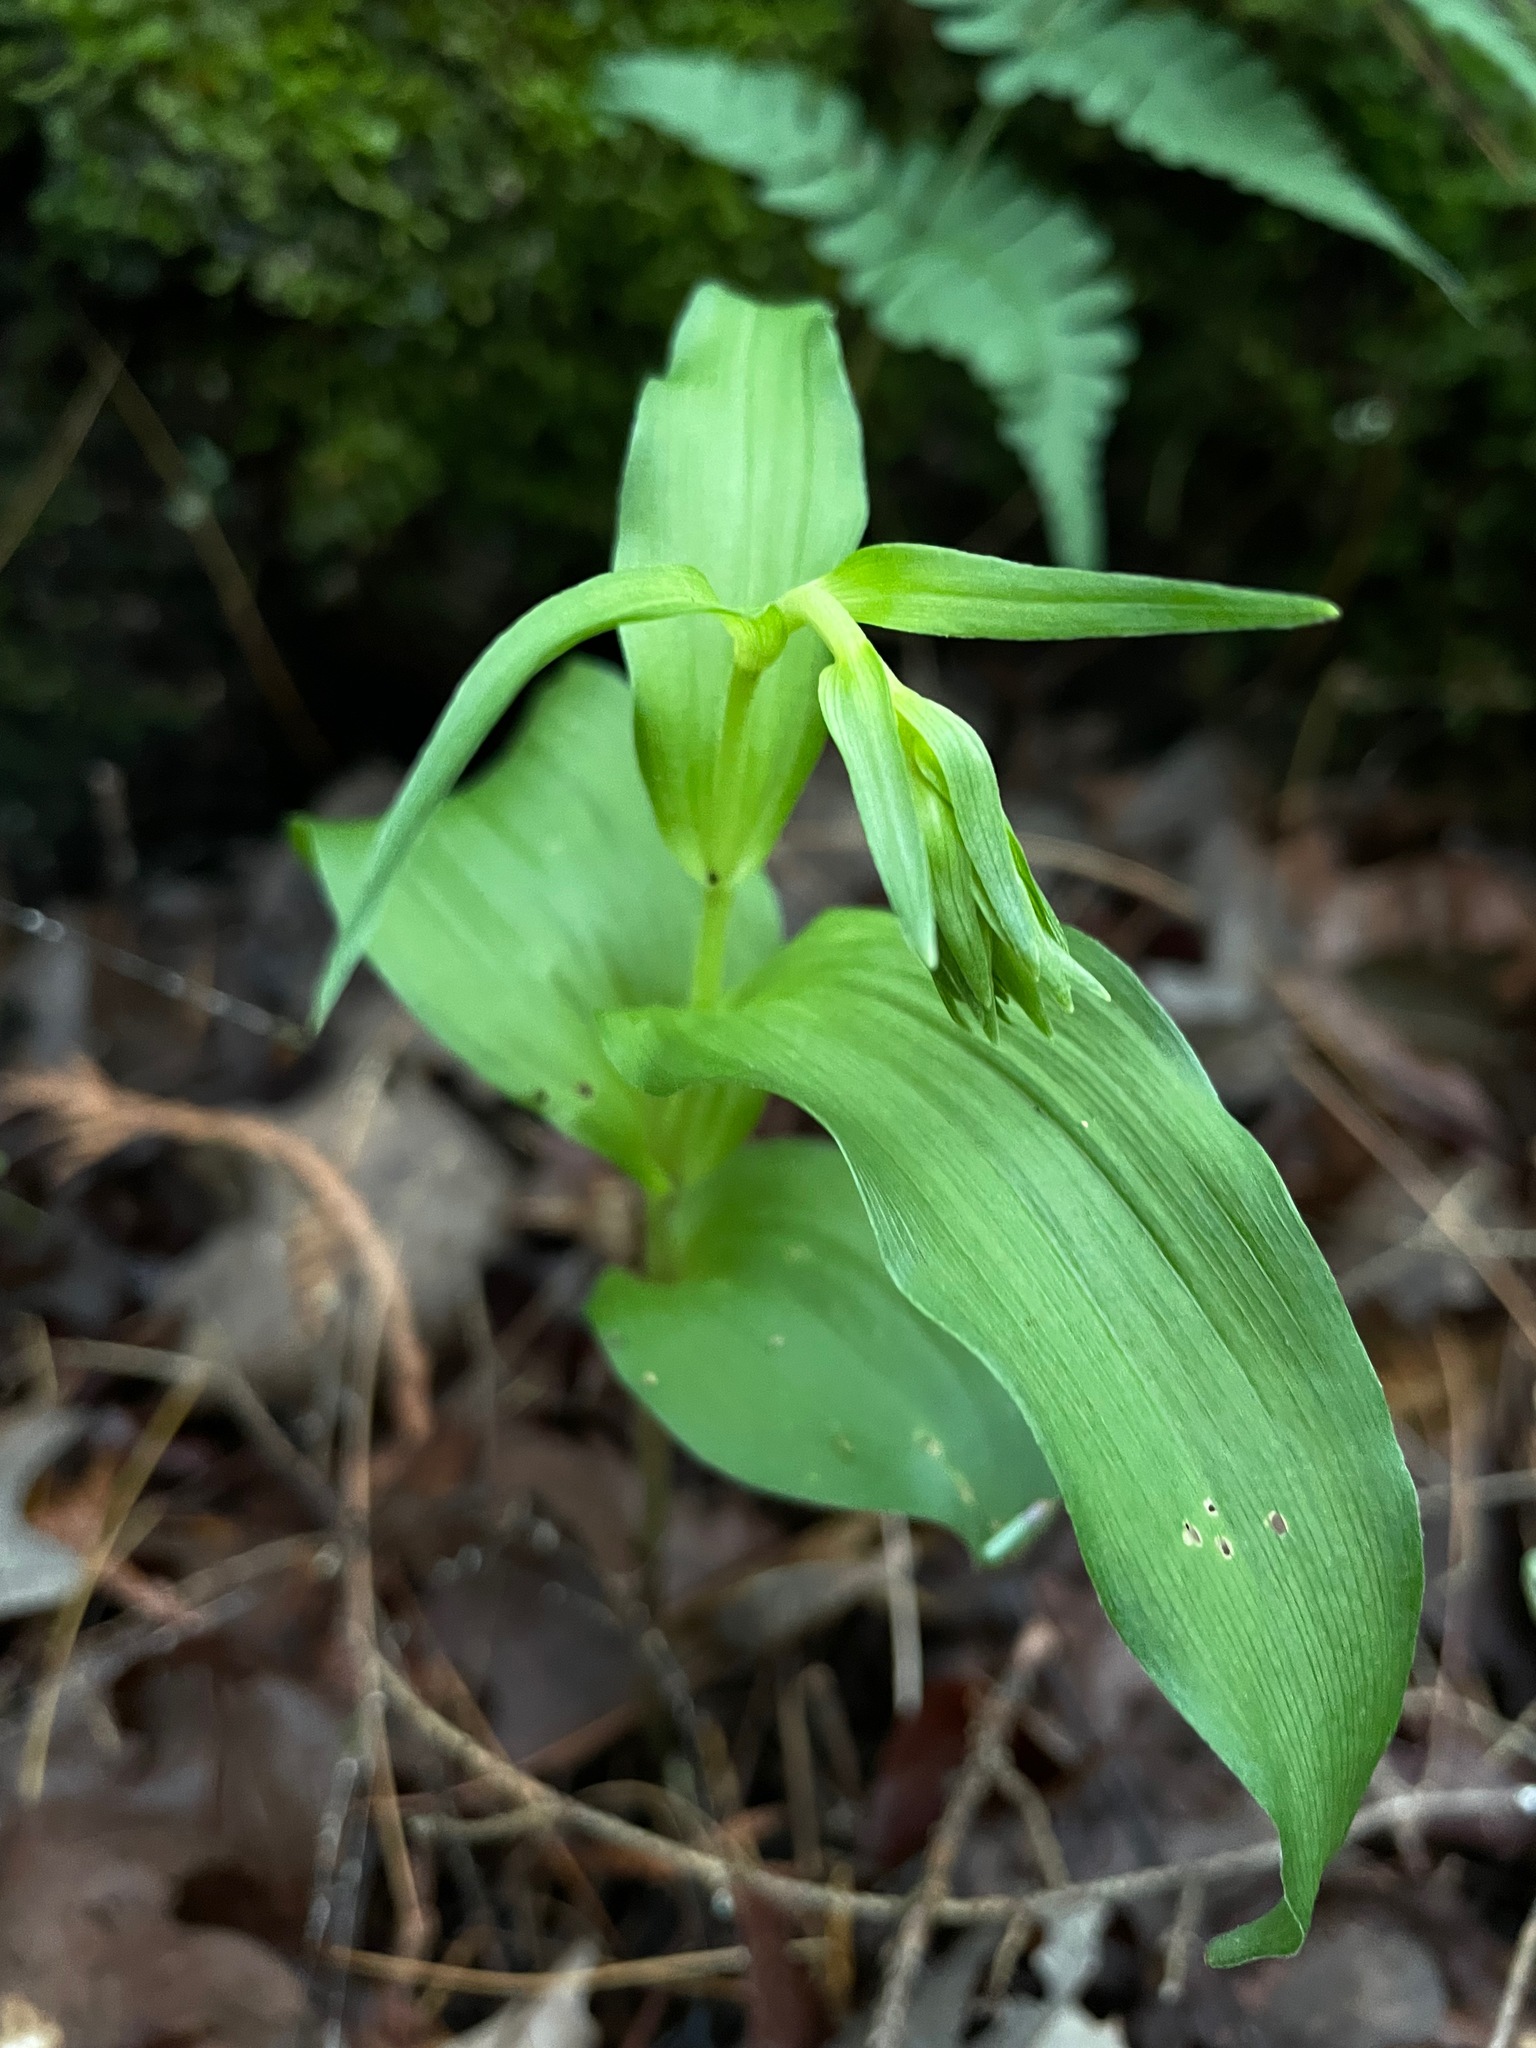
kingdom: Plantae
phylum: Tracheophyta
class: Liliopsida
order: Asparagales
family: Orchidaceae
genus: Epipactis
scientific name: Epipactis helleborine
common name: Broad-leaved helleborine
